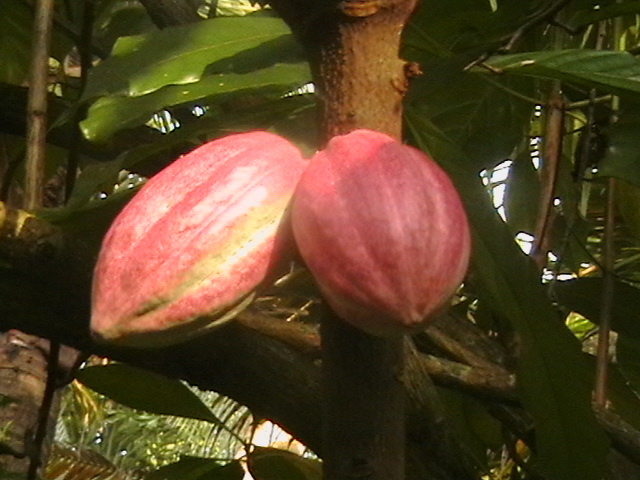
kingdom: Plantae
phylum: Tracheophyta
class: Magnoliopsida
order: Malvales
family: Malvaceae
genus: Theobroma
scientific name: Theobroma cacao
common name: Cocoa
